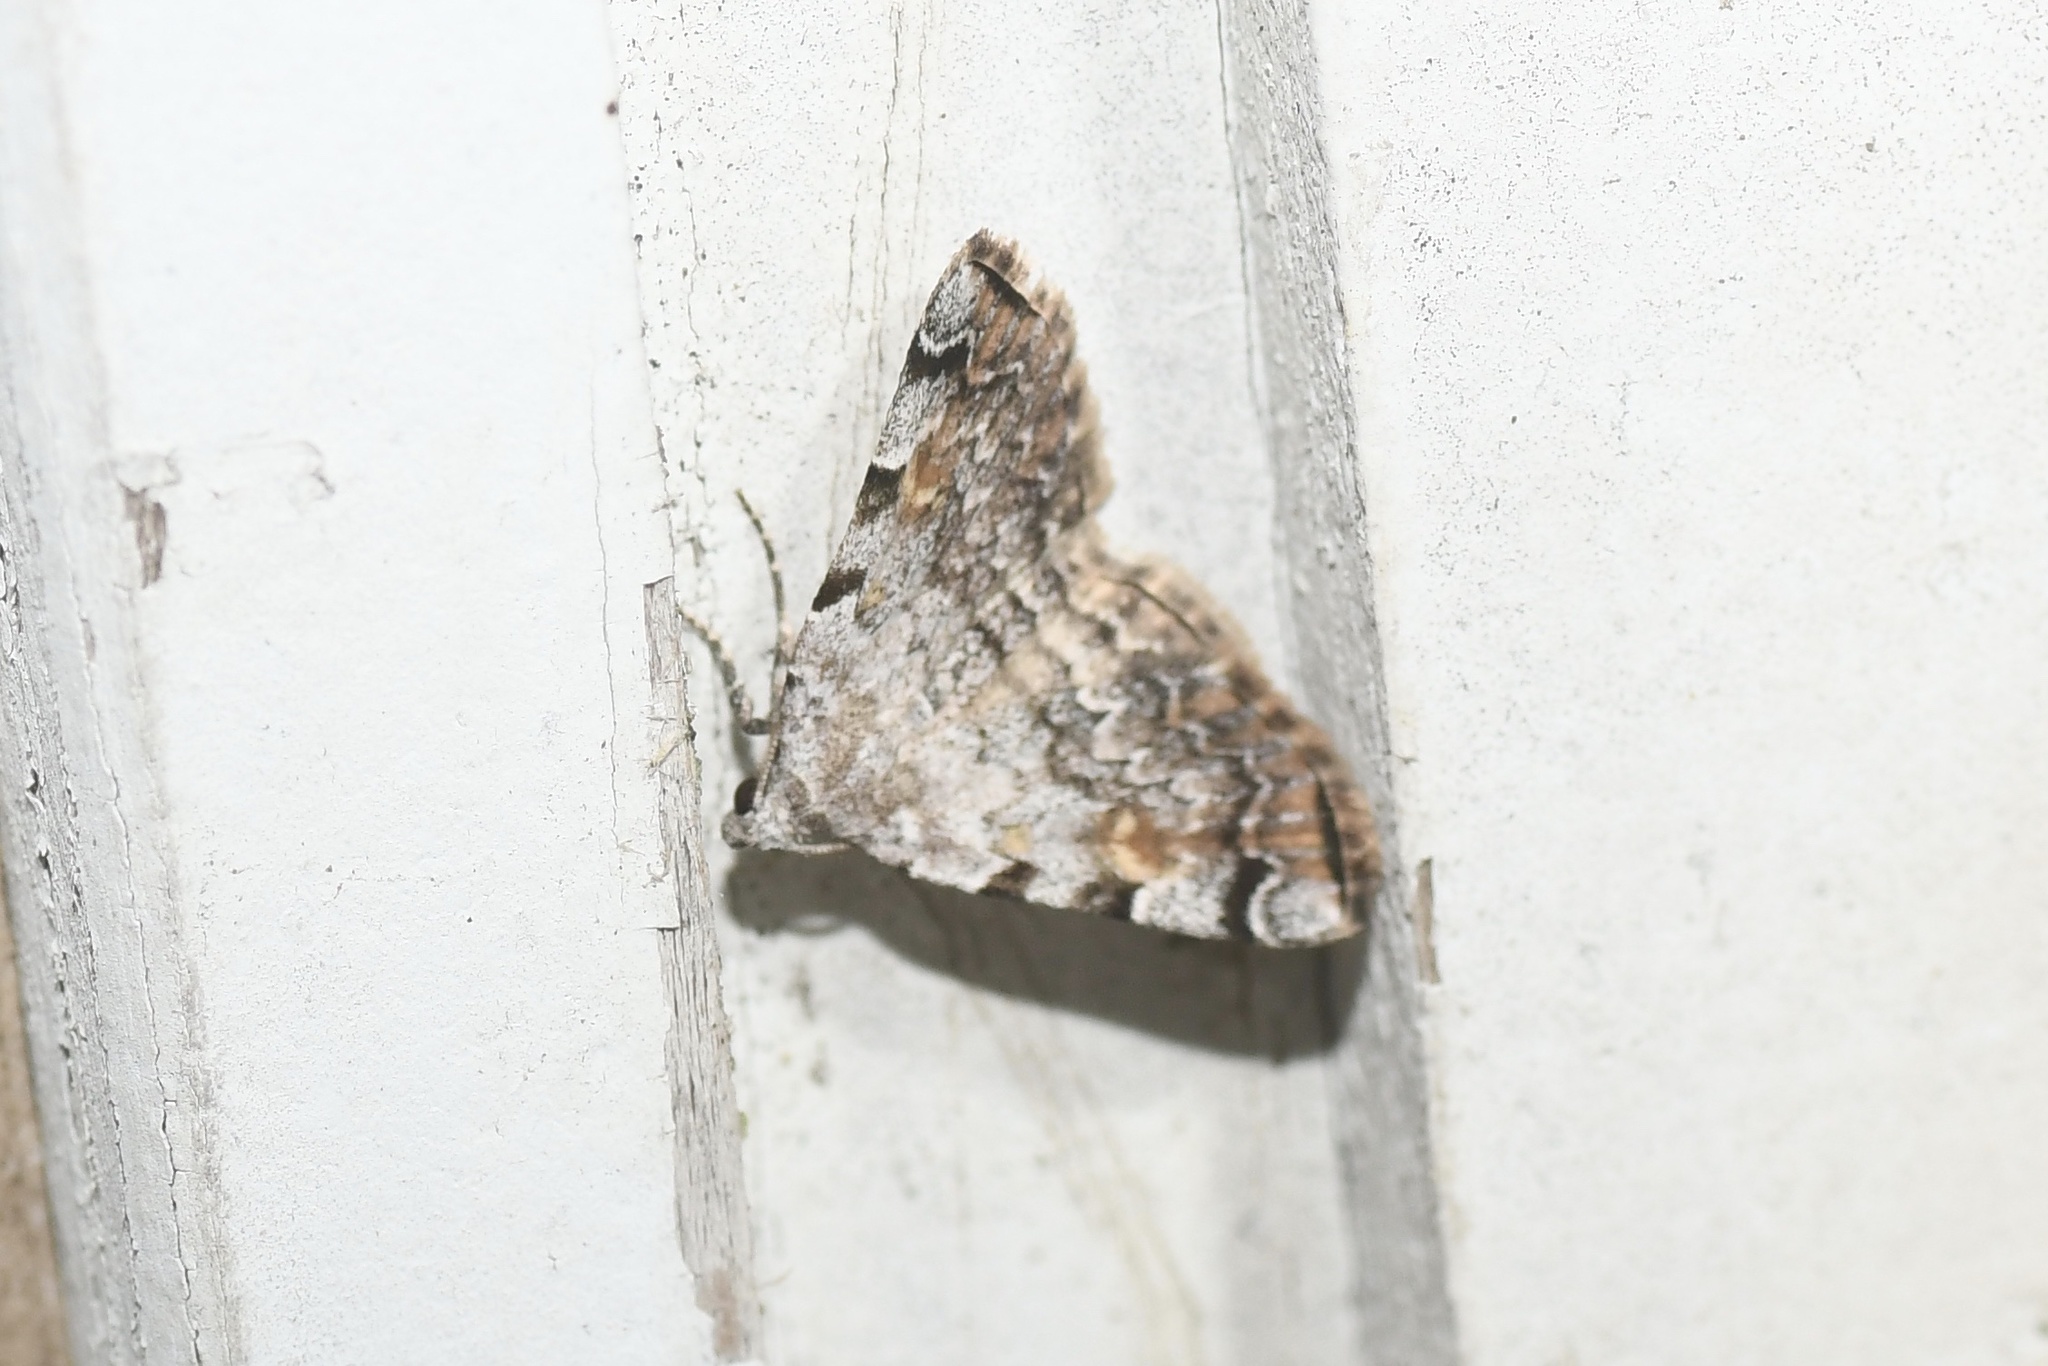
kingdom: Animalia
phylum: Arthropoda
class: Insecta
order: Lepidoptera
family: Erebidae
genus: Idia
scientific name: Idia americalis
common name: American idia moth
